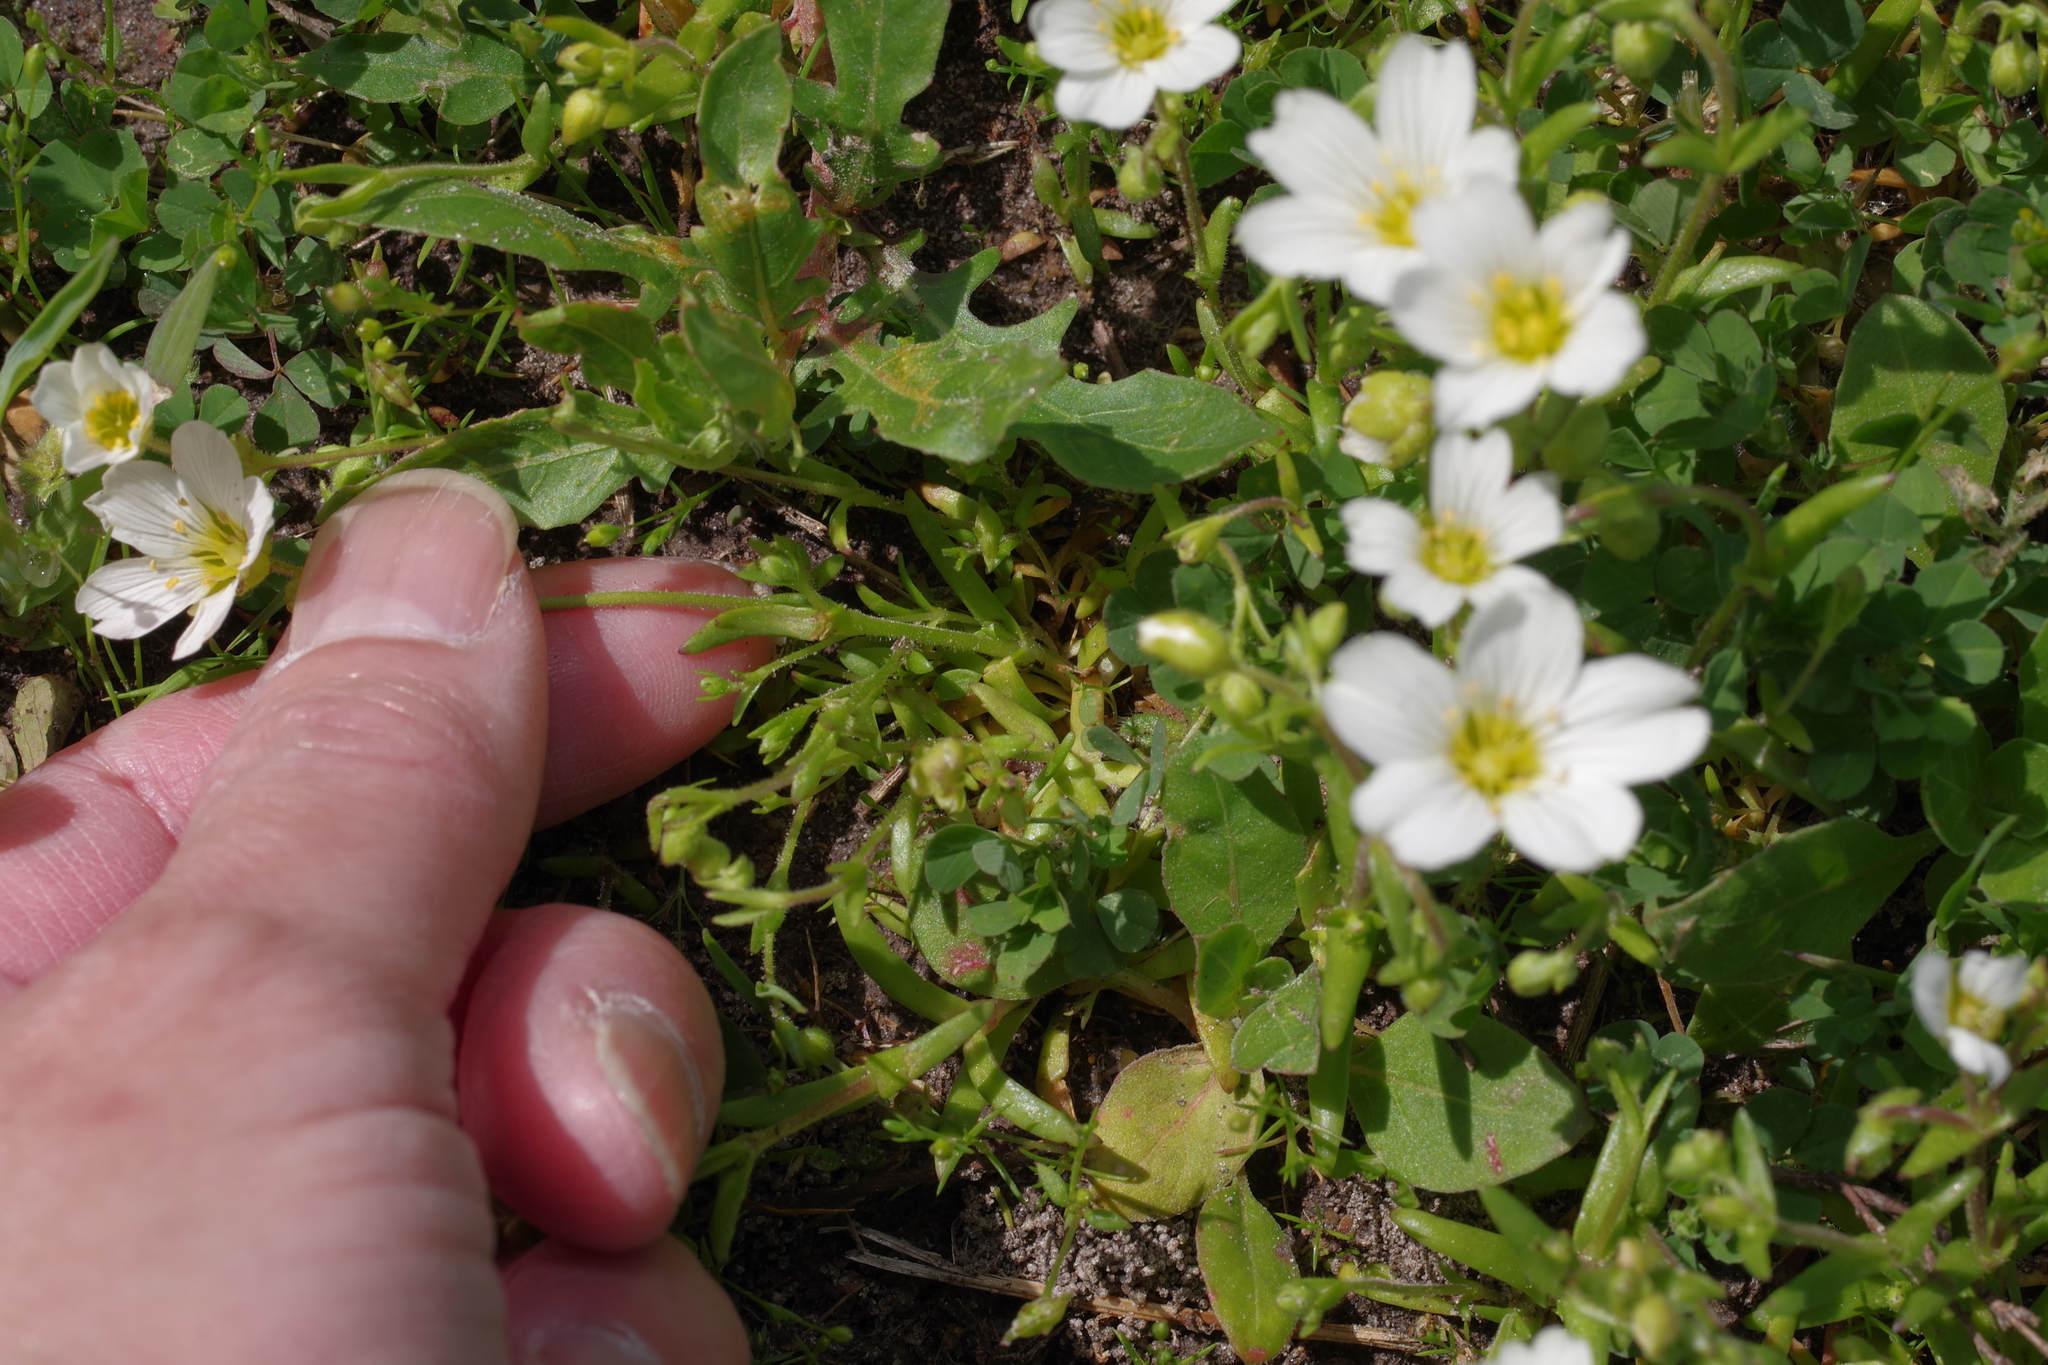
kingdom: Plantae
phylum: Tracheophyta
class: Magnoliopsida
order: Caryophyllales
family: Caryophyllaceae
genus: Geocarpon
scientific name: Geocarpon nuttallii
